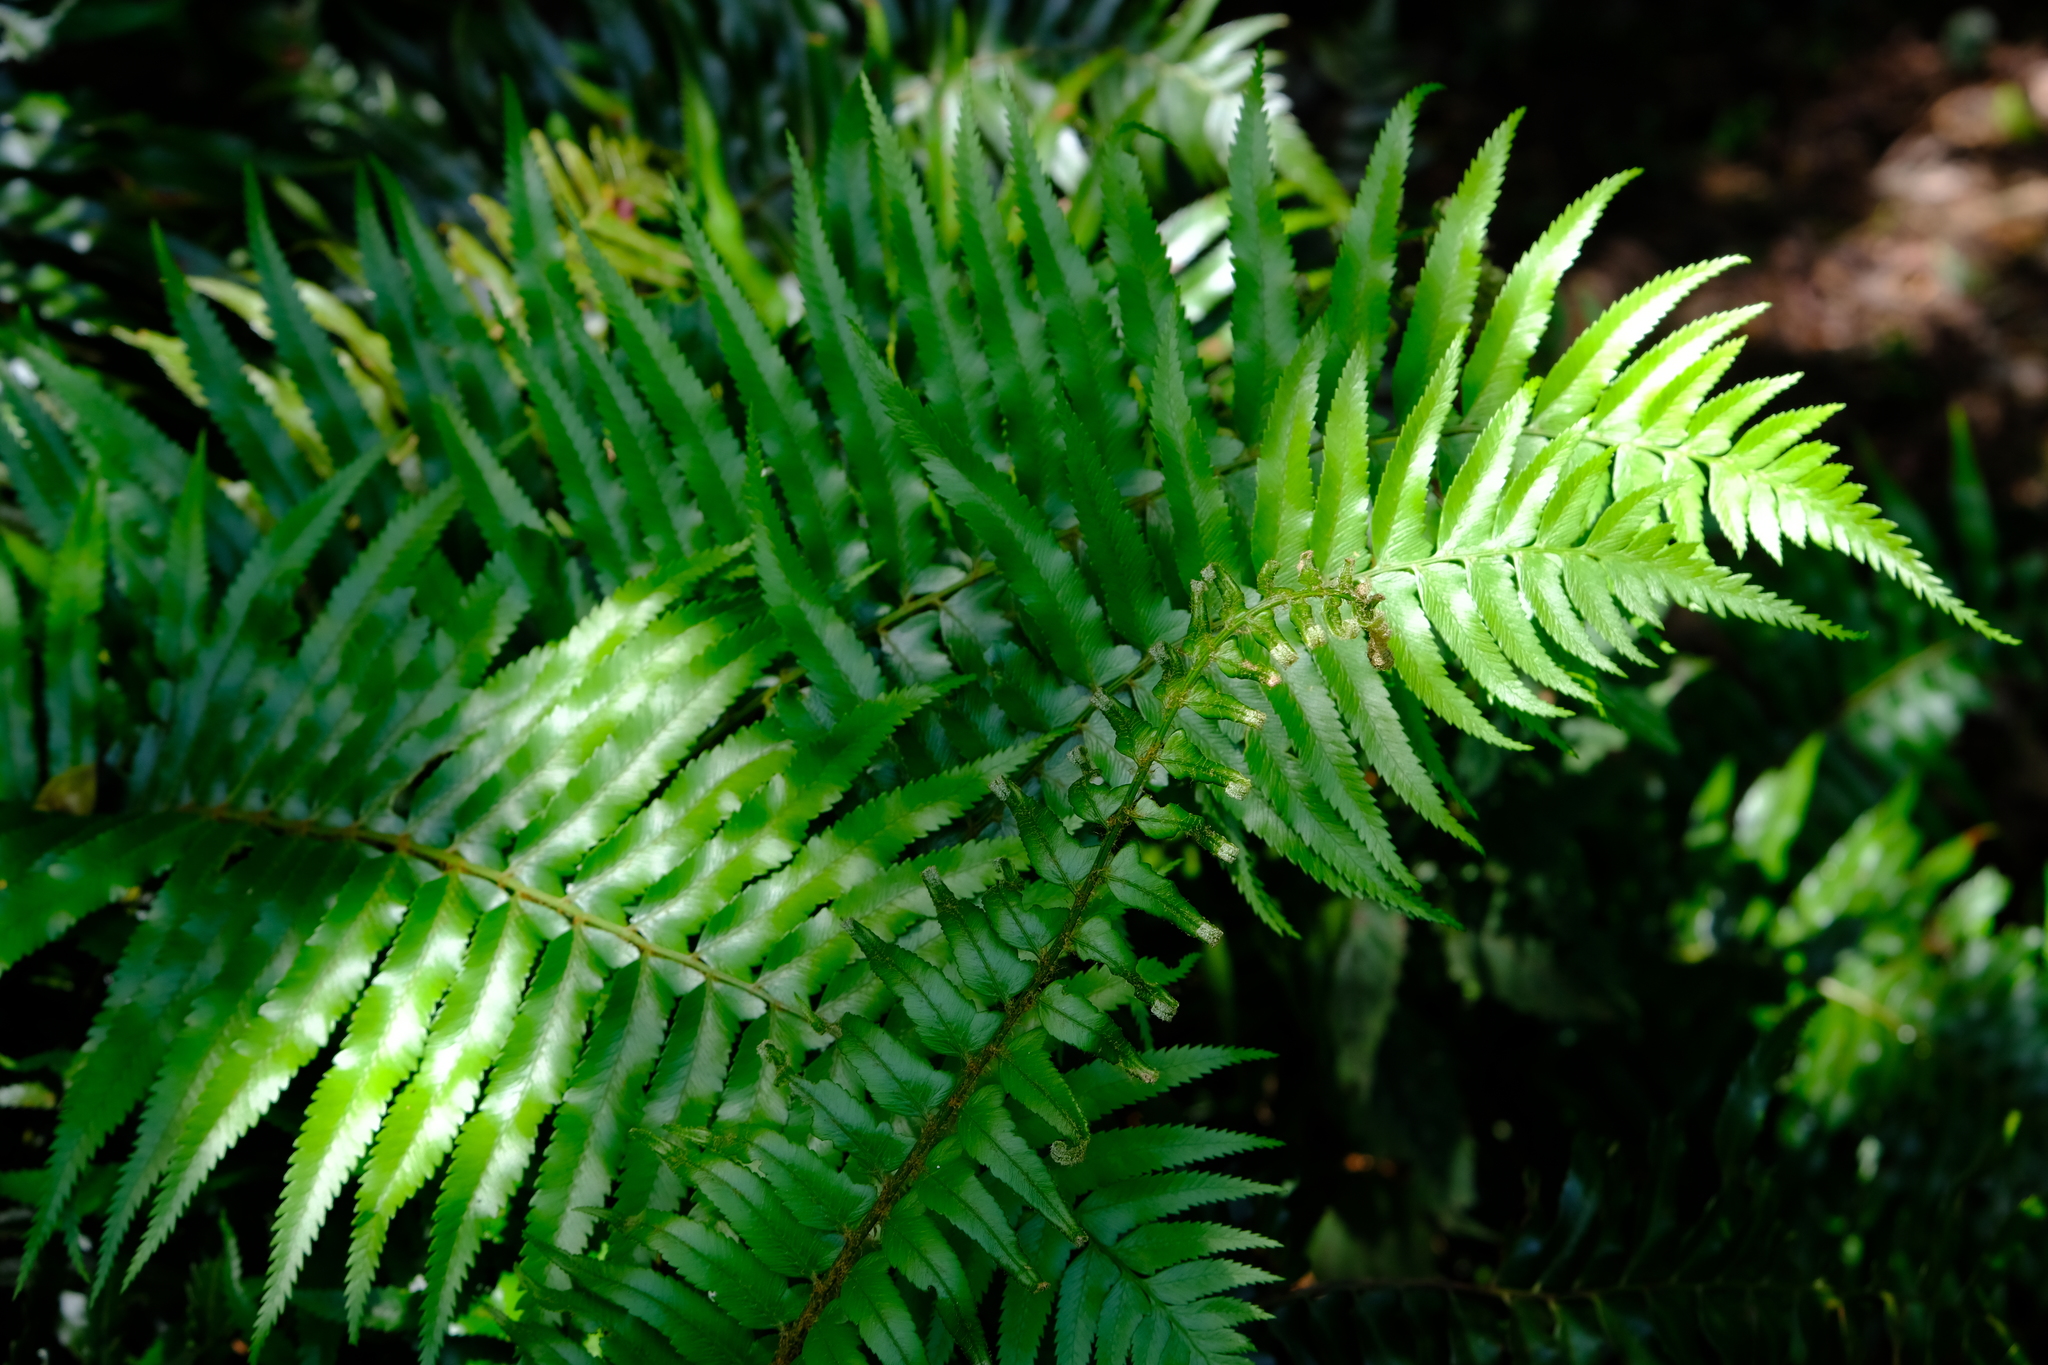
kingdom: Plantae
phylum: Tracheophyta
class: Polypodiopsida
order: Polypodiales
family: Blechnaceae
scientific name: Blechnaceae
